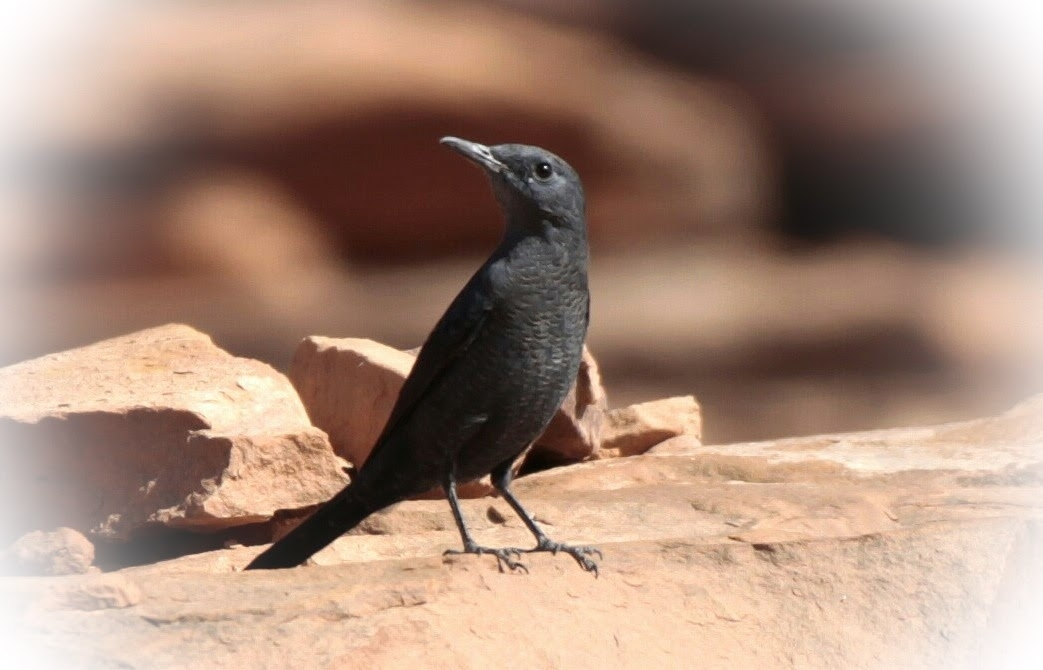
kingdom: Animalia
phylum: Chordata
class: Aves
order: Passeriformes
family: Muscicapidae
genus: Monticola
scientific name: Monticola solitarius
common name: Blue rock thrush
